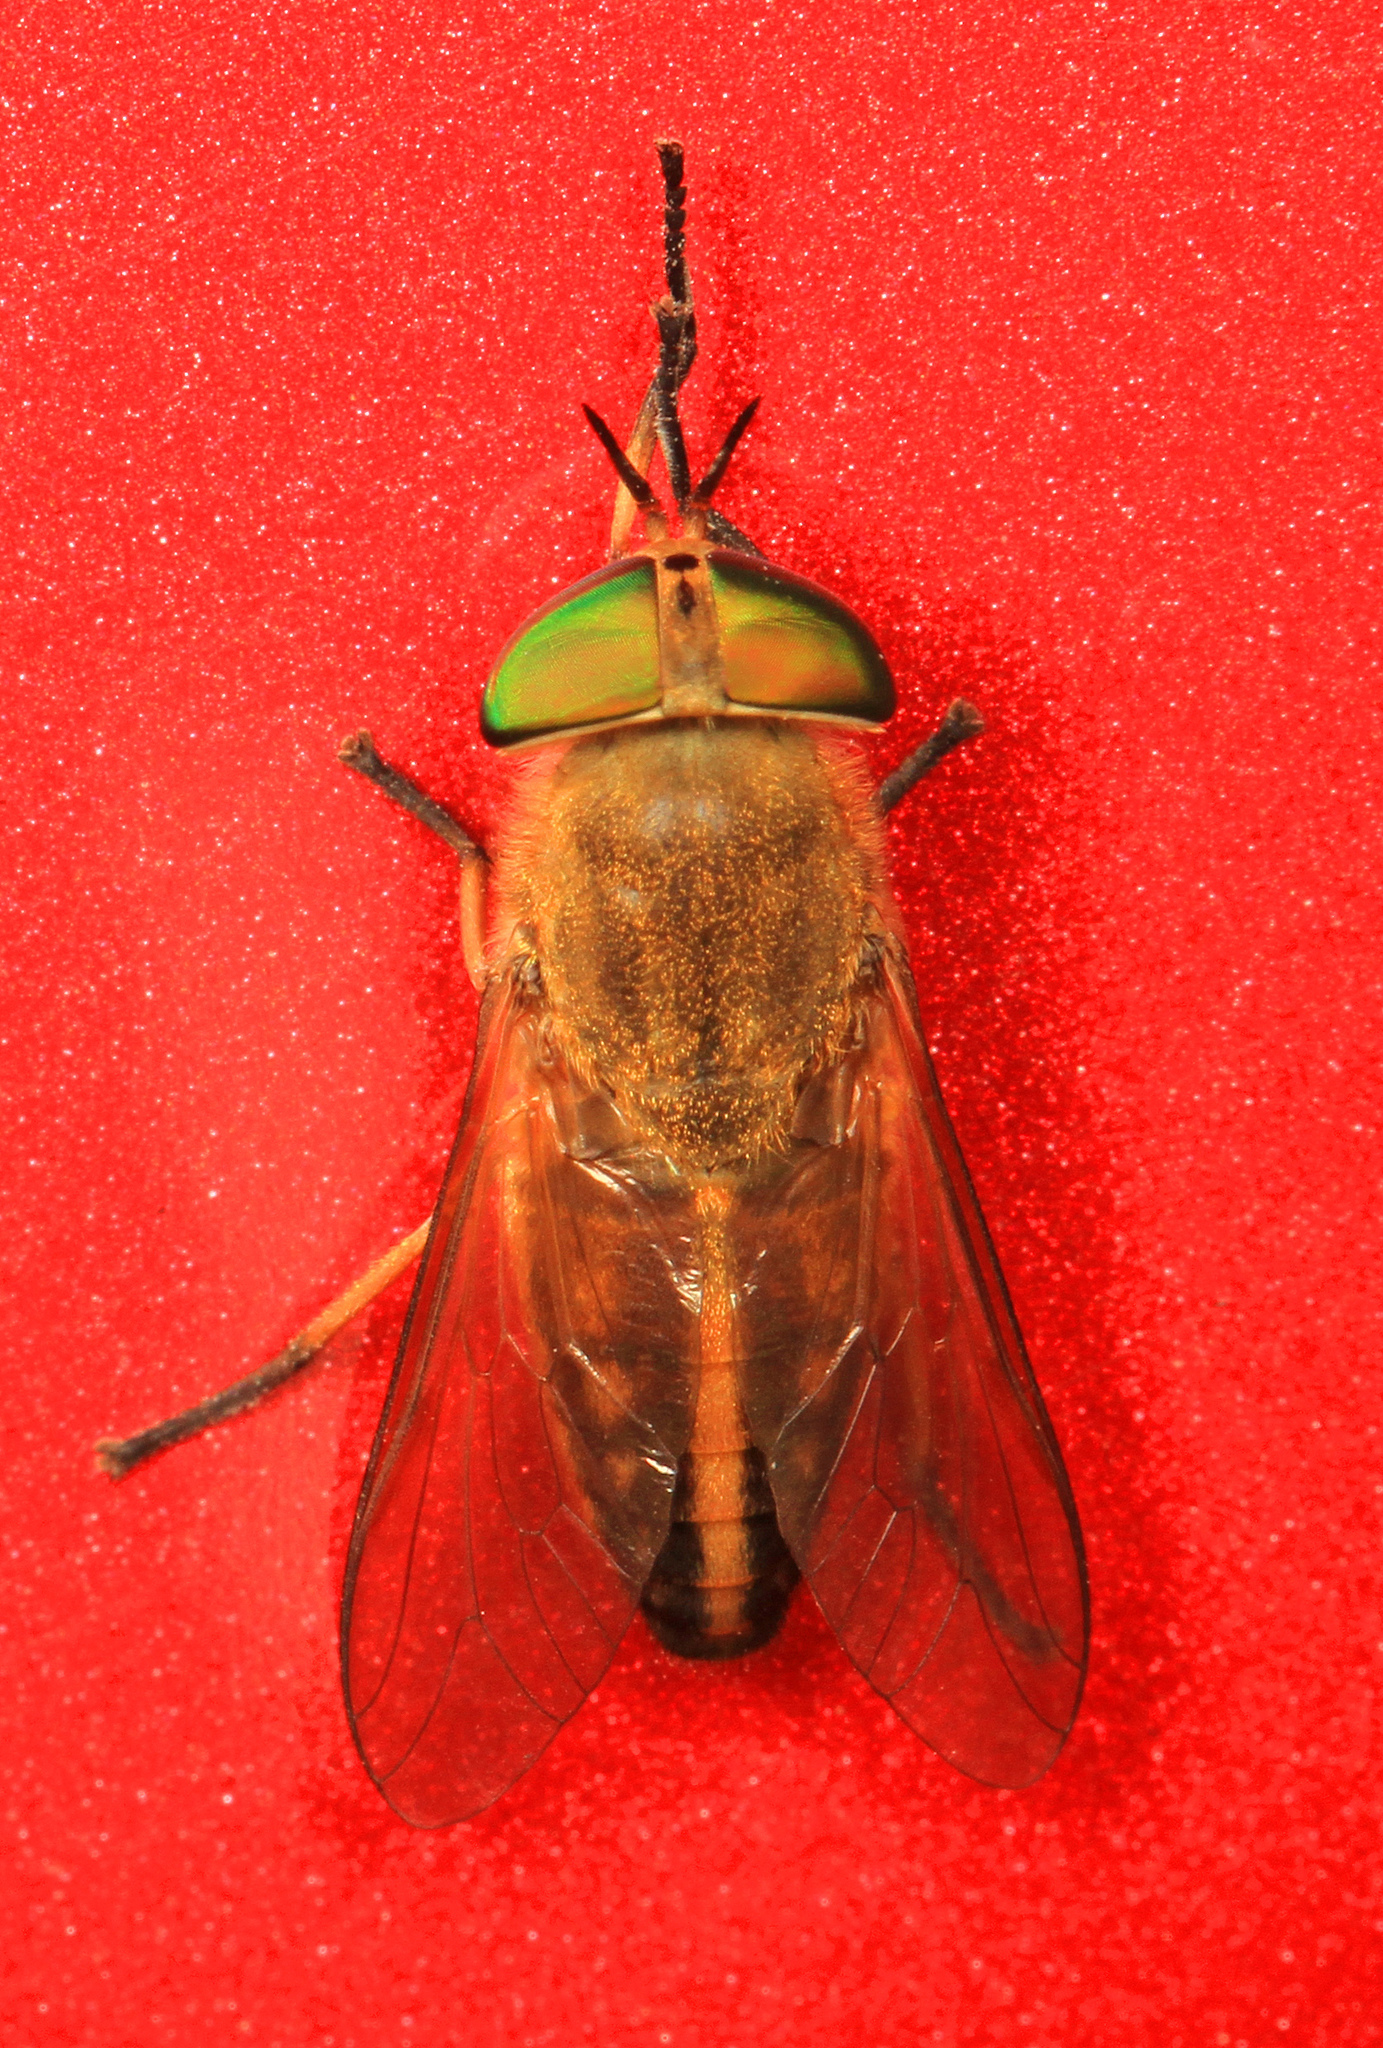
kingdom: Animalia
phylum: Arthropoda
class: Insecta
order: Diptera
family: Tabanidae
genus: Tabanus
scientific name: Tabanus quinquevittatus
